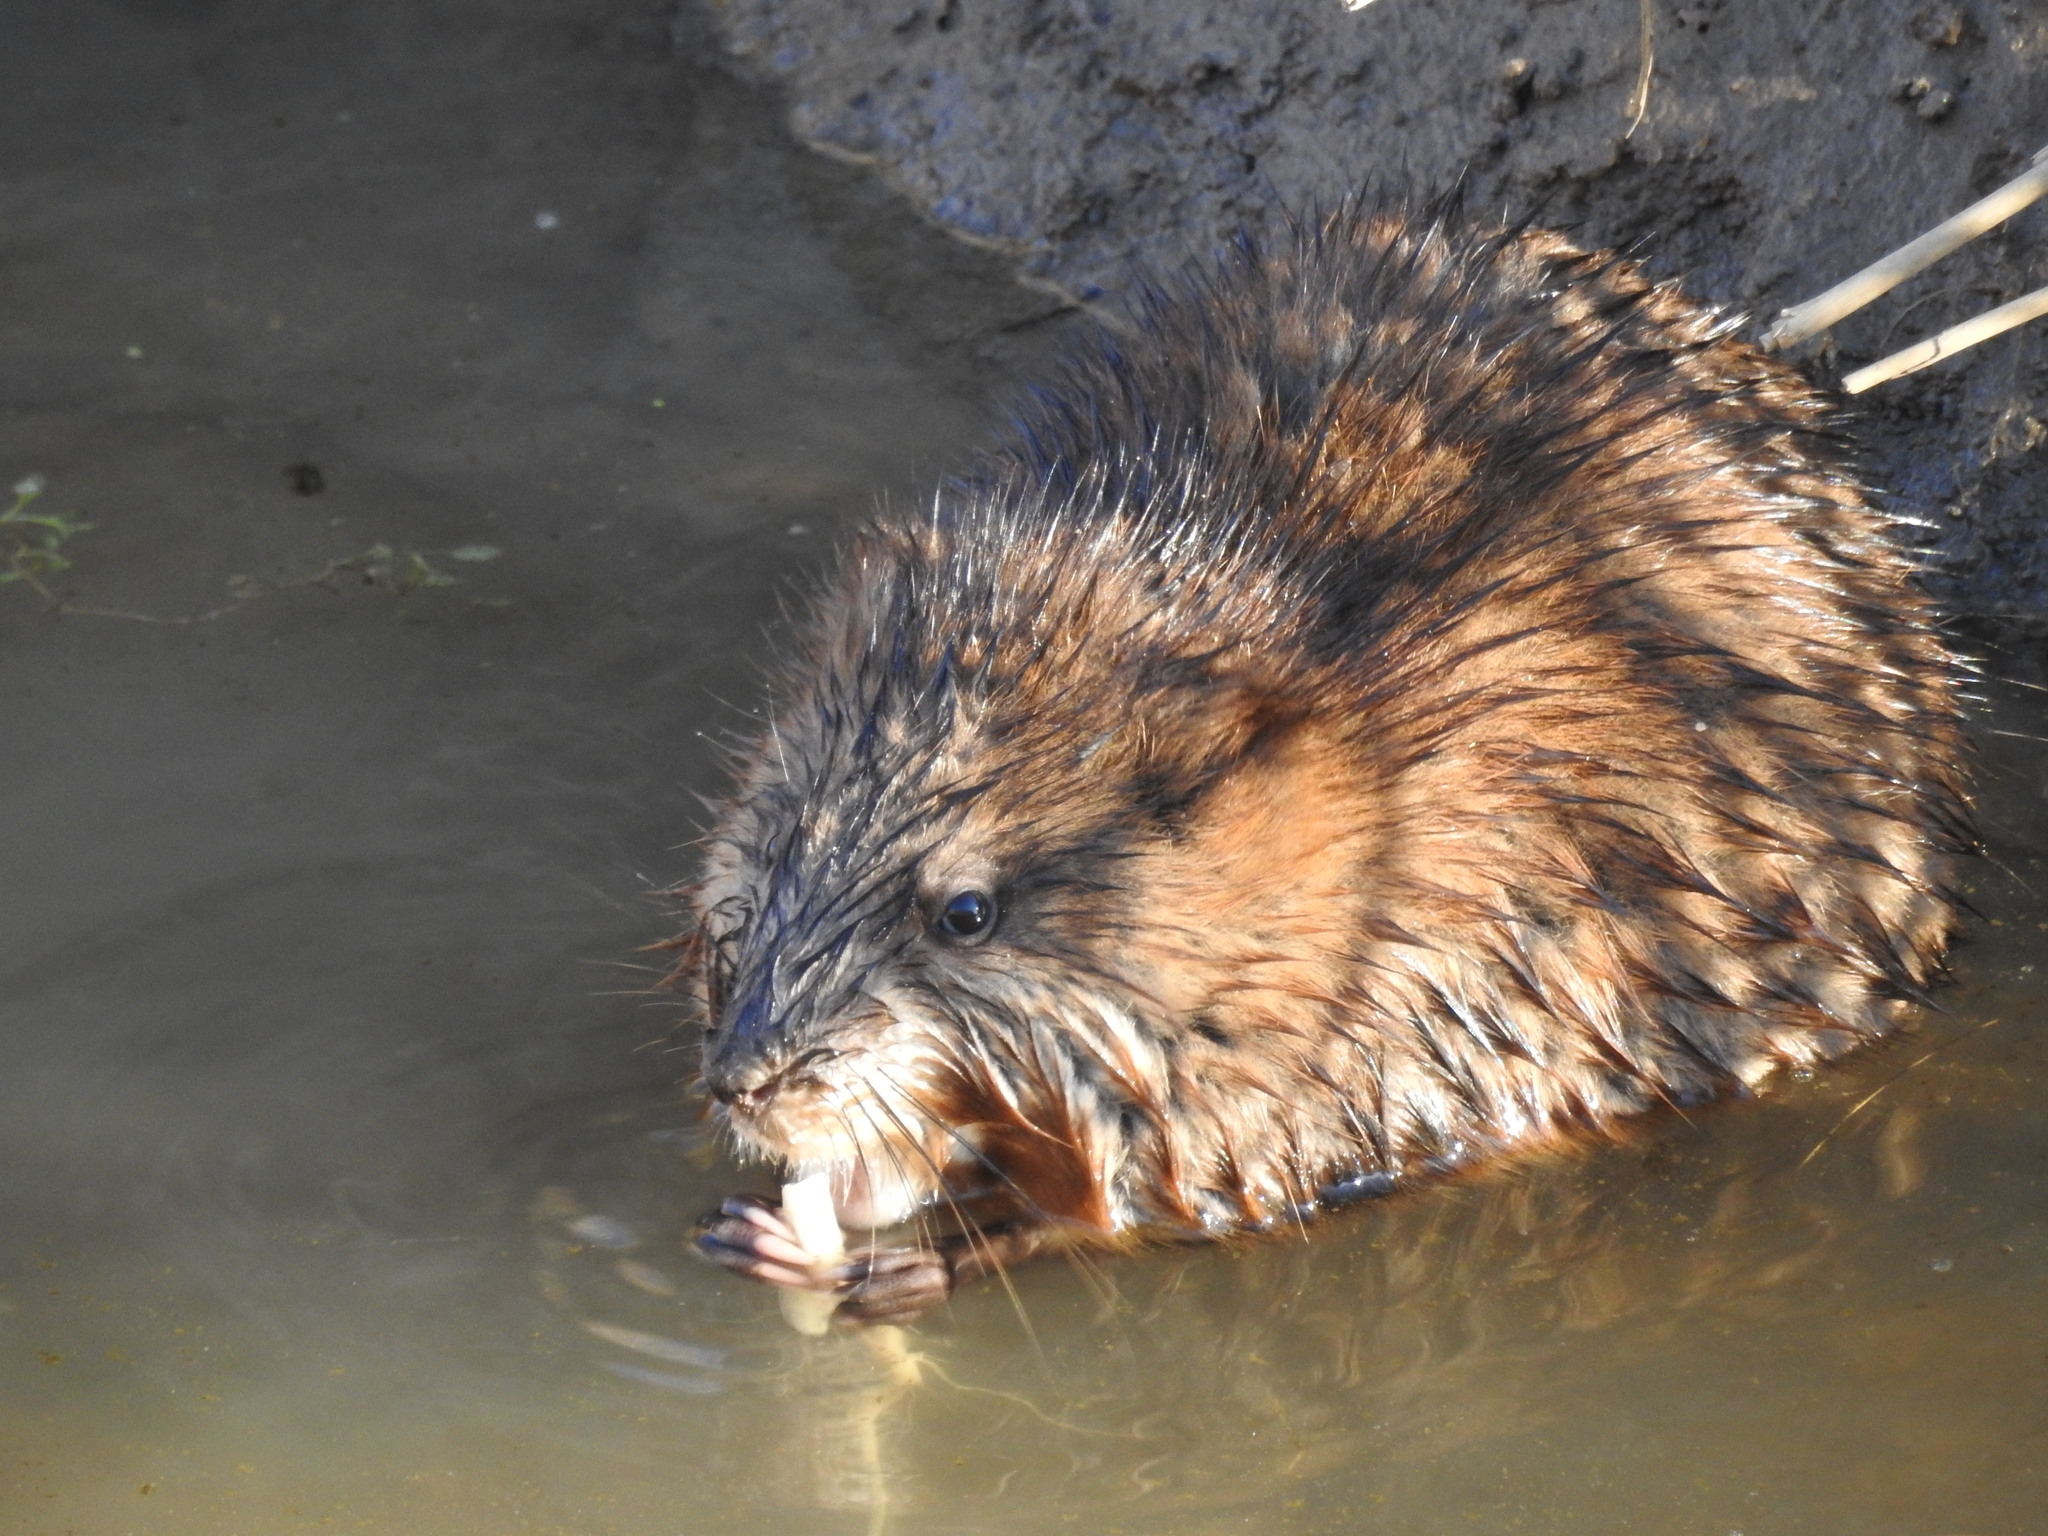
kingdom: Animalia
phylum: Chordata
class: Mammalia
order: Rodentia
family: Cricetidae
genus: Ondatra
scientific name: Ondatra zibethicus
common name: Muskrat
